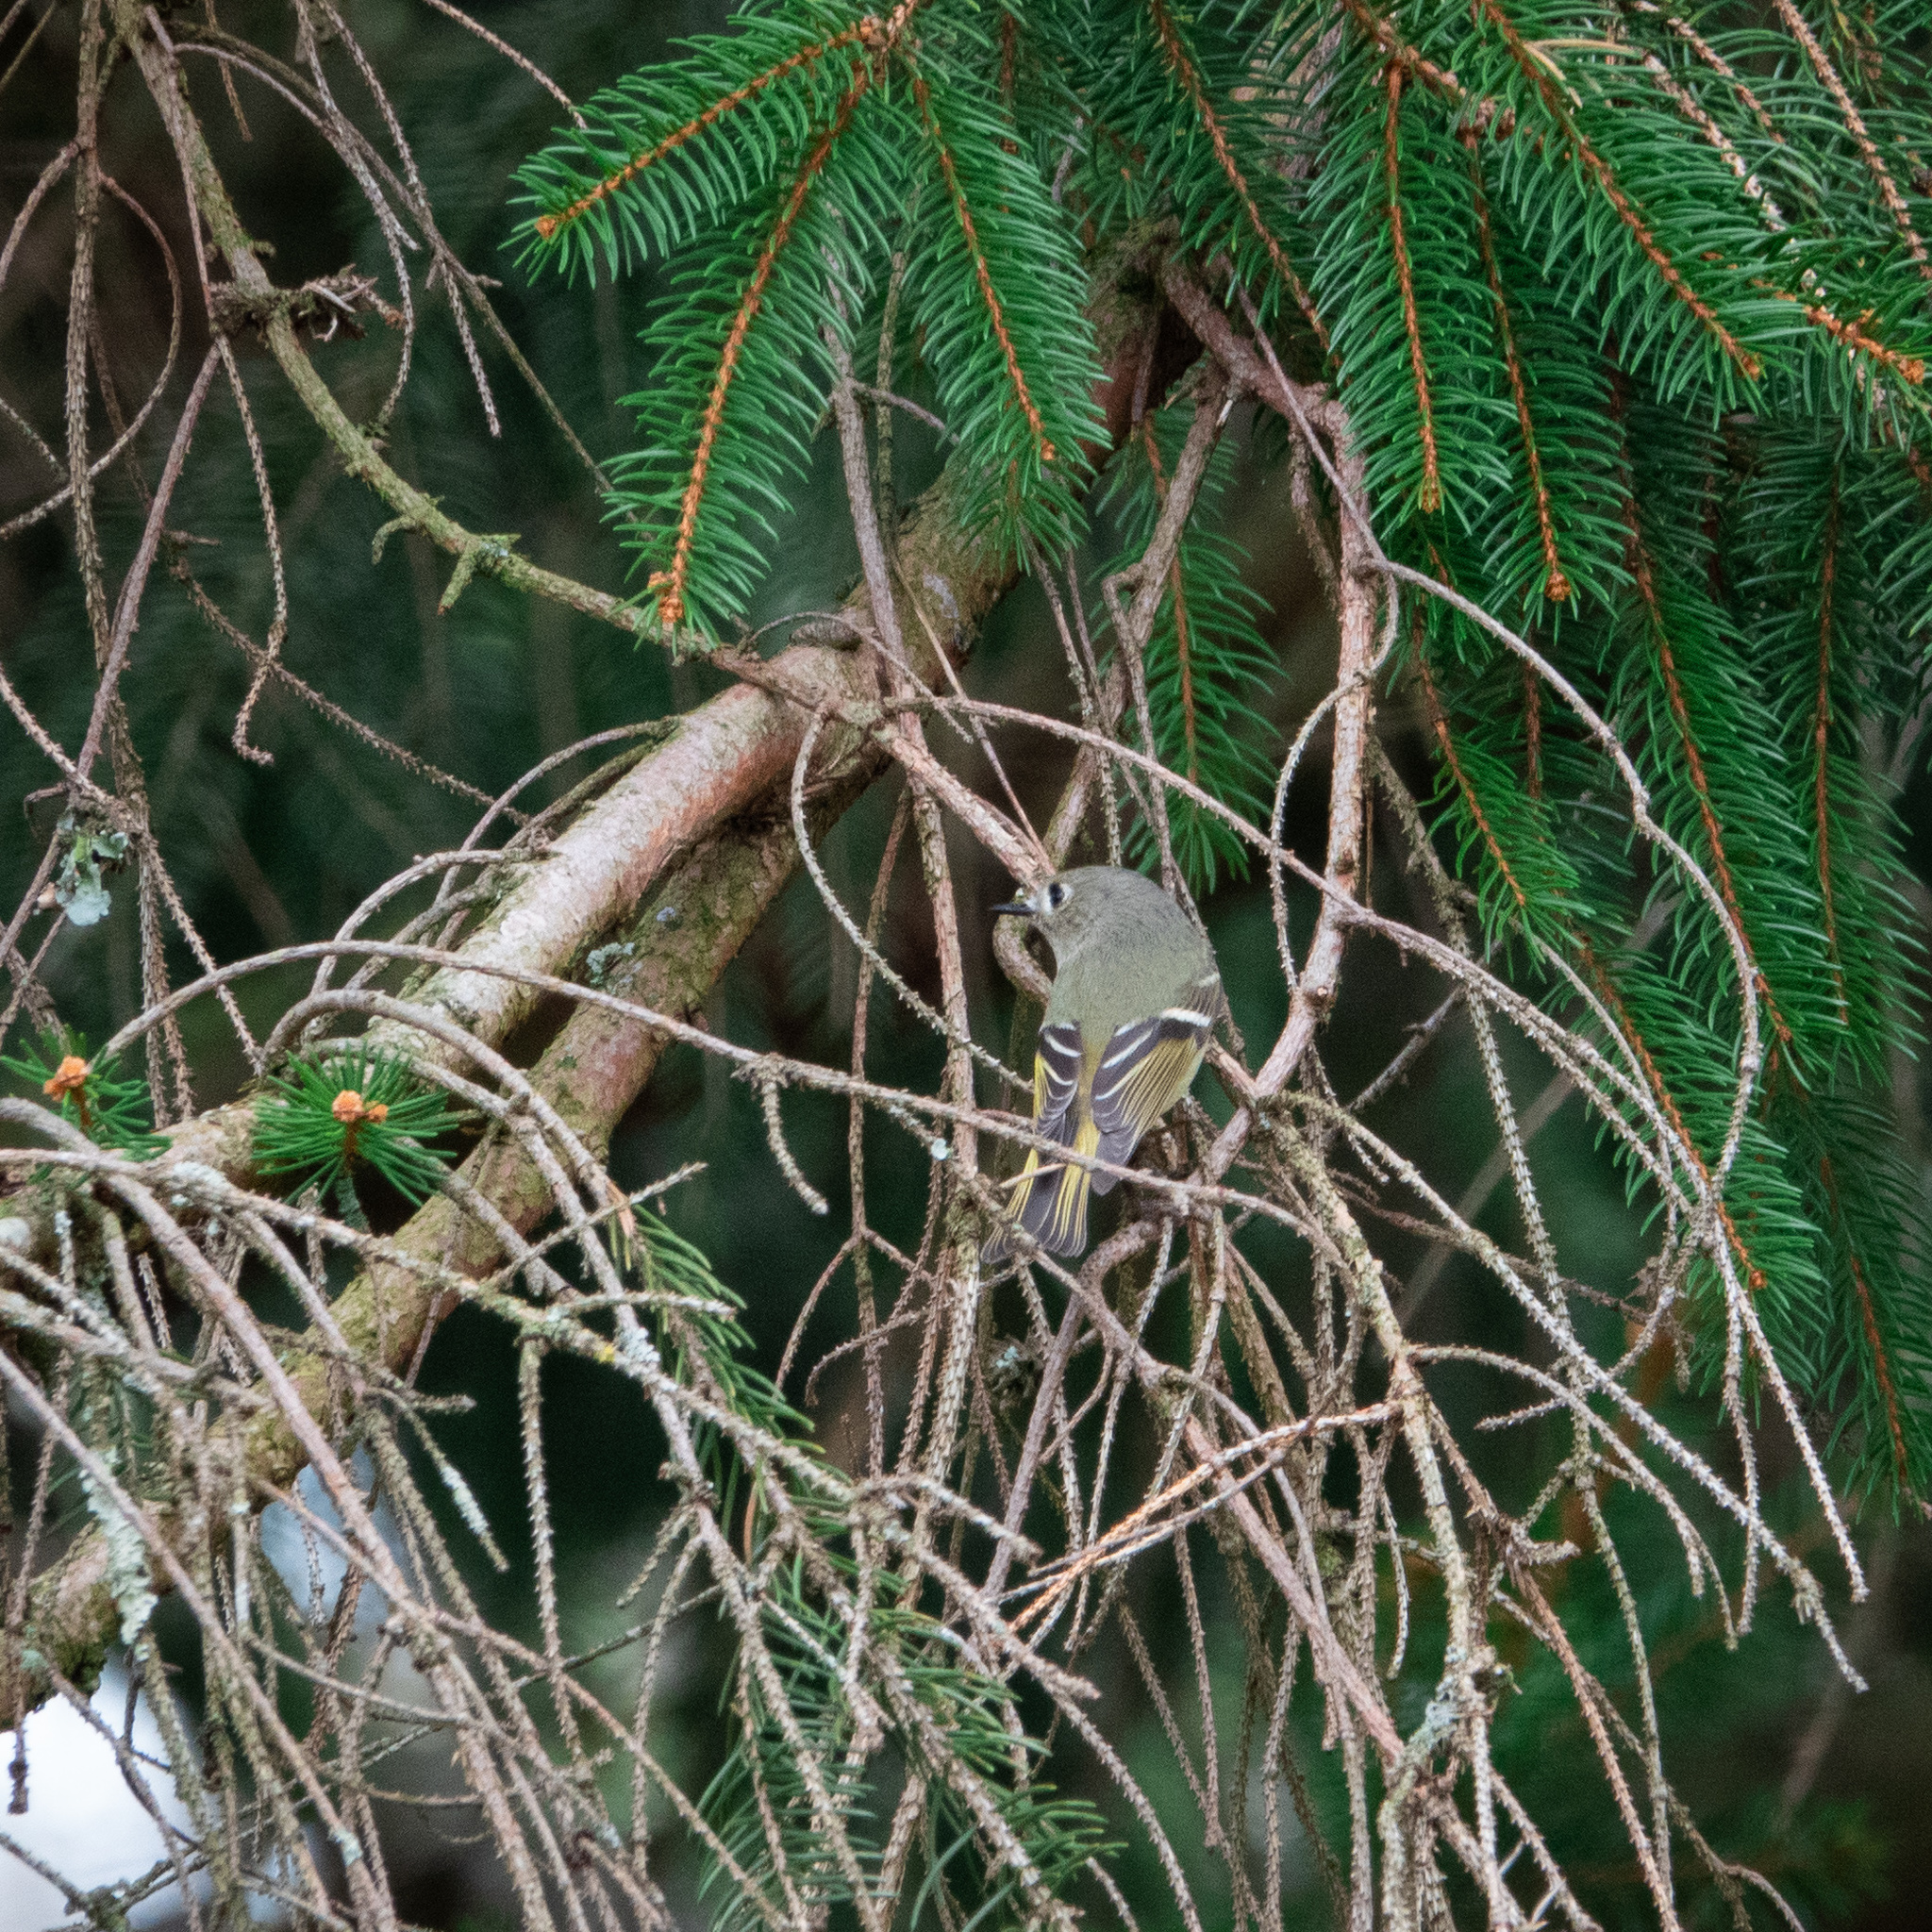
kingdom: Animalia
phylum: Chordata
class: Aves
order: Passeriformes
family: Regulidae
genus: Regulus
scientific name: Regulus calendula
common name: Ruby-crowned kinglet
